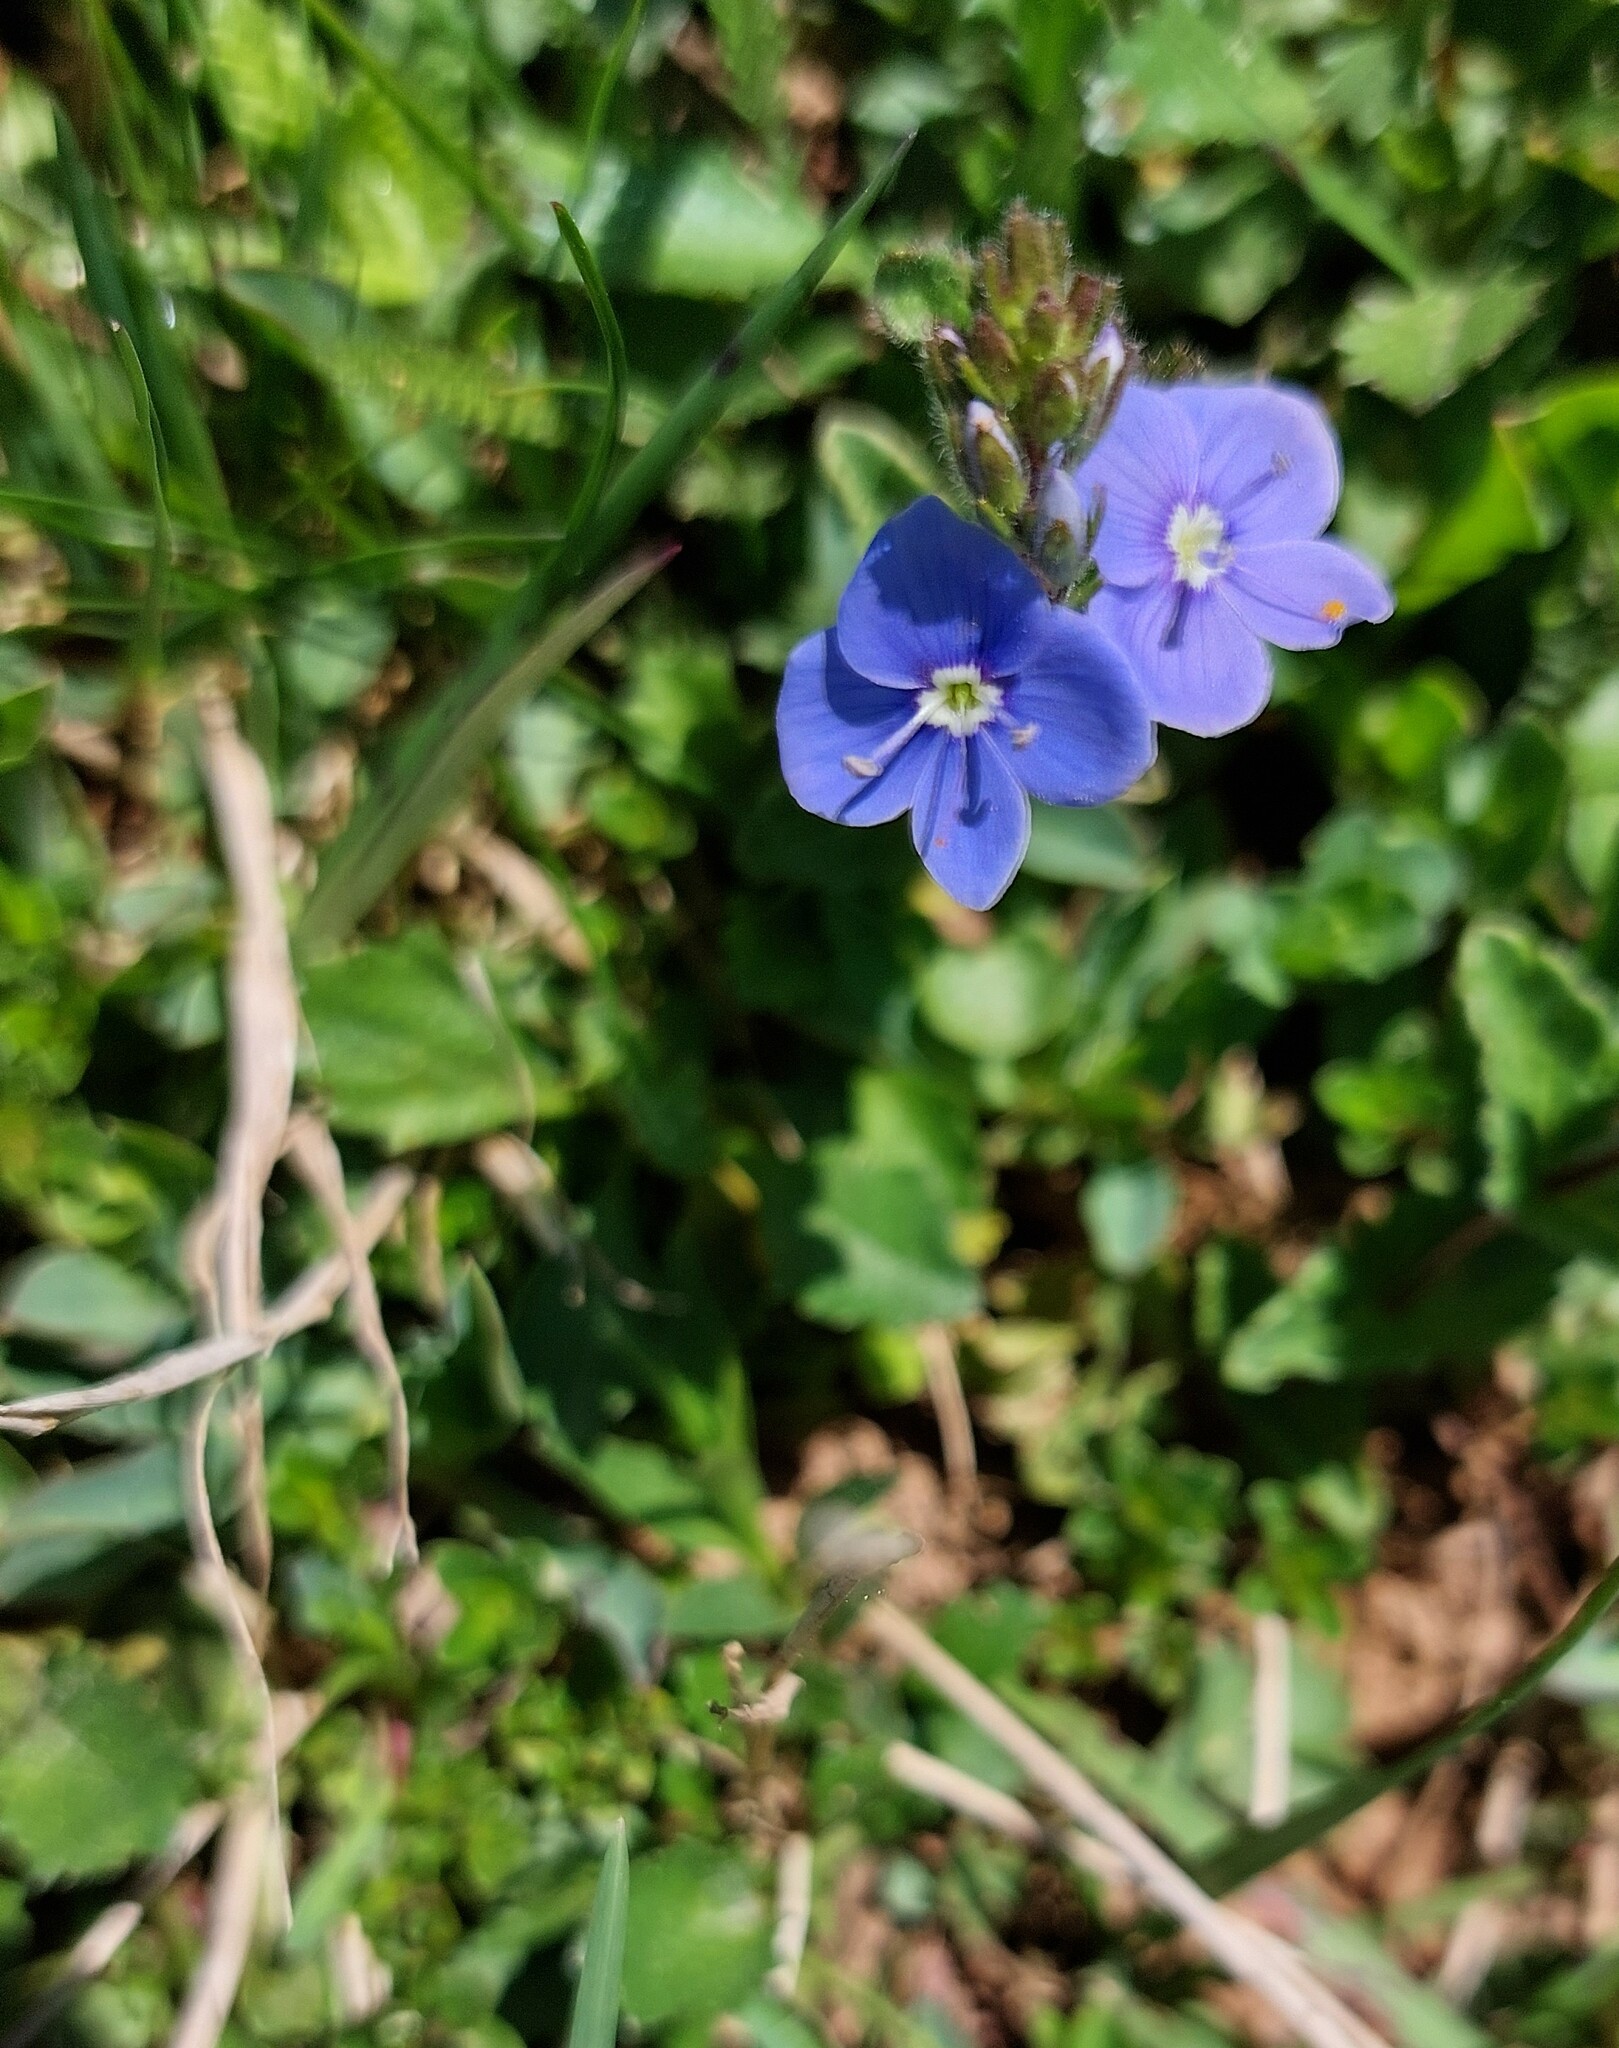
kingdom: Plantae
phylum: Tracheophyta
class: Magnoliopsida
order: Lamiales
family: Plantaginaceae
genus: Veronica
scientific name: Veronica chamaedrys
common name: Germander speedwell
